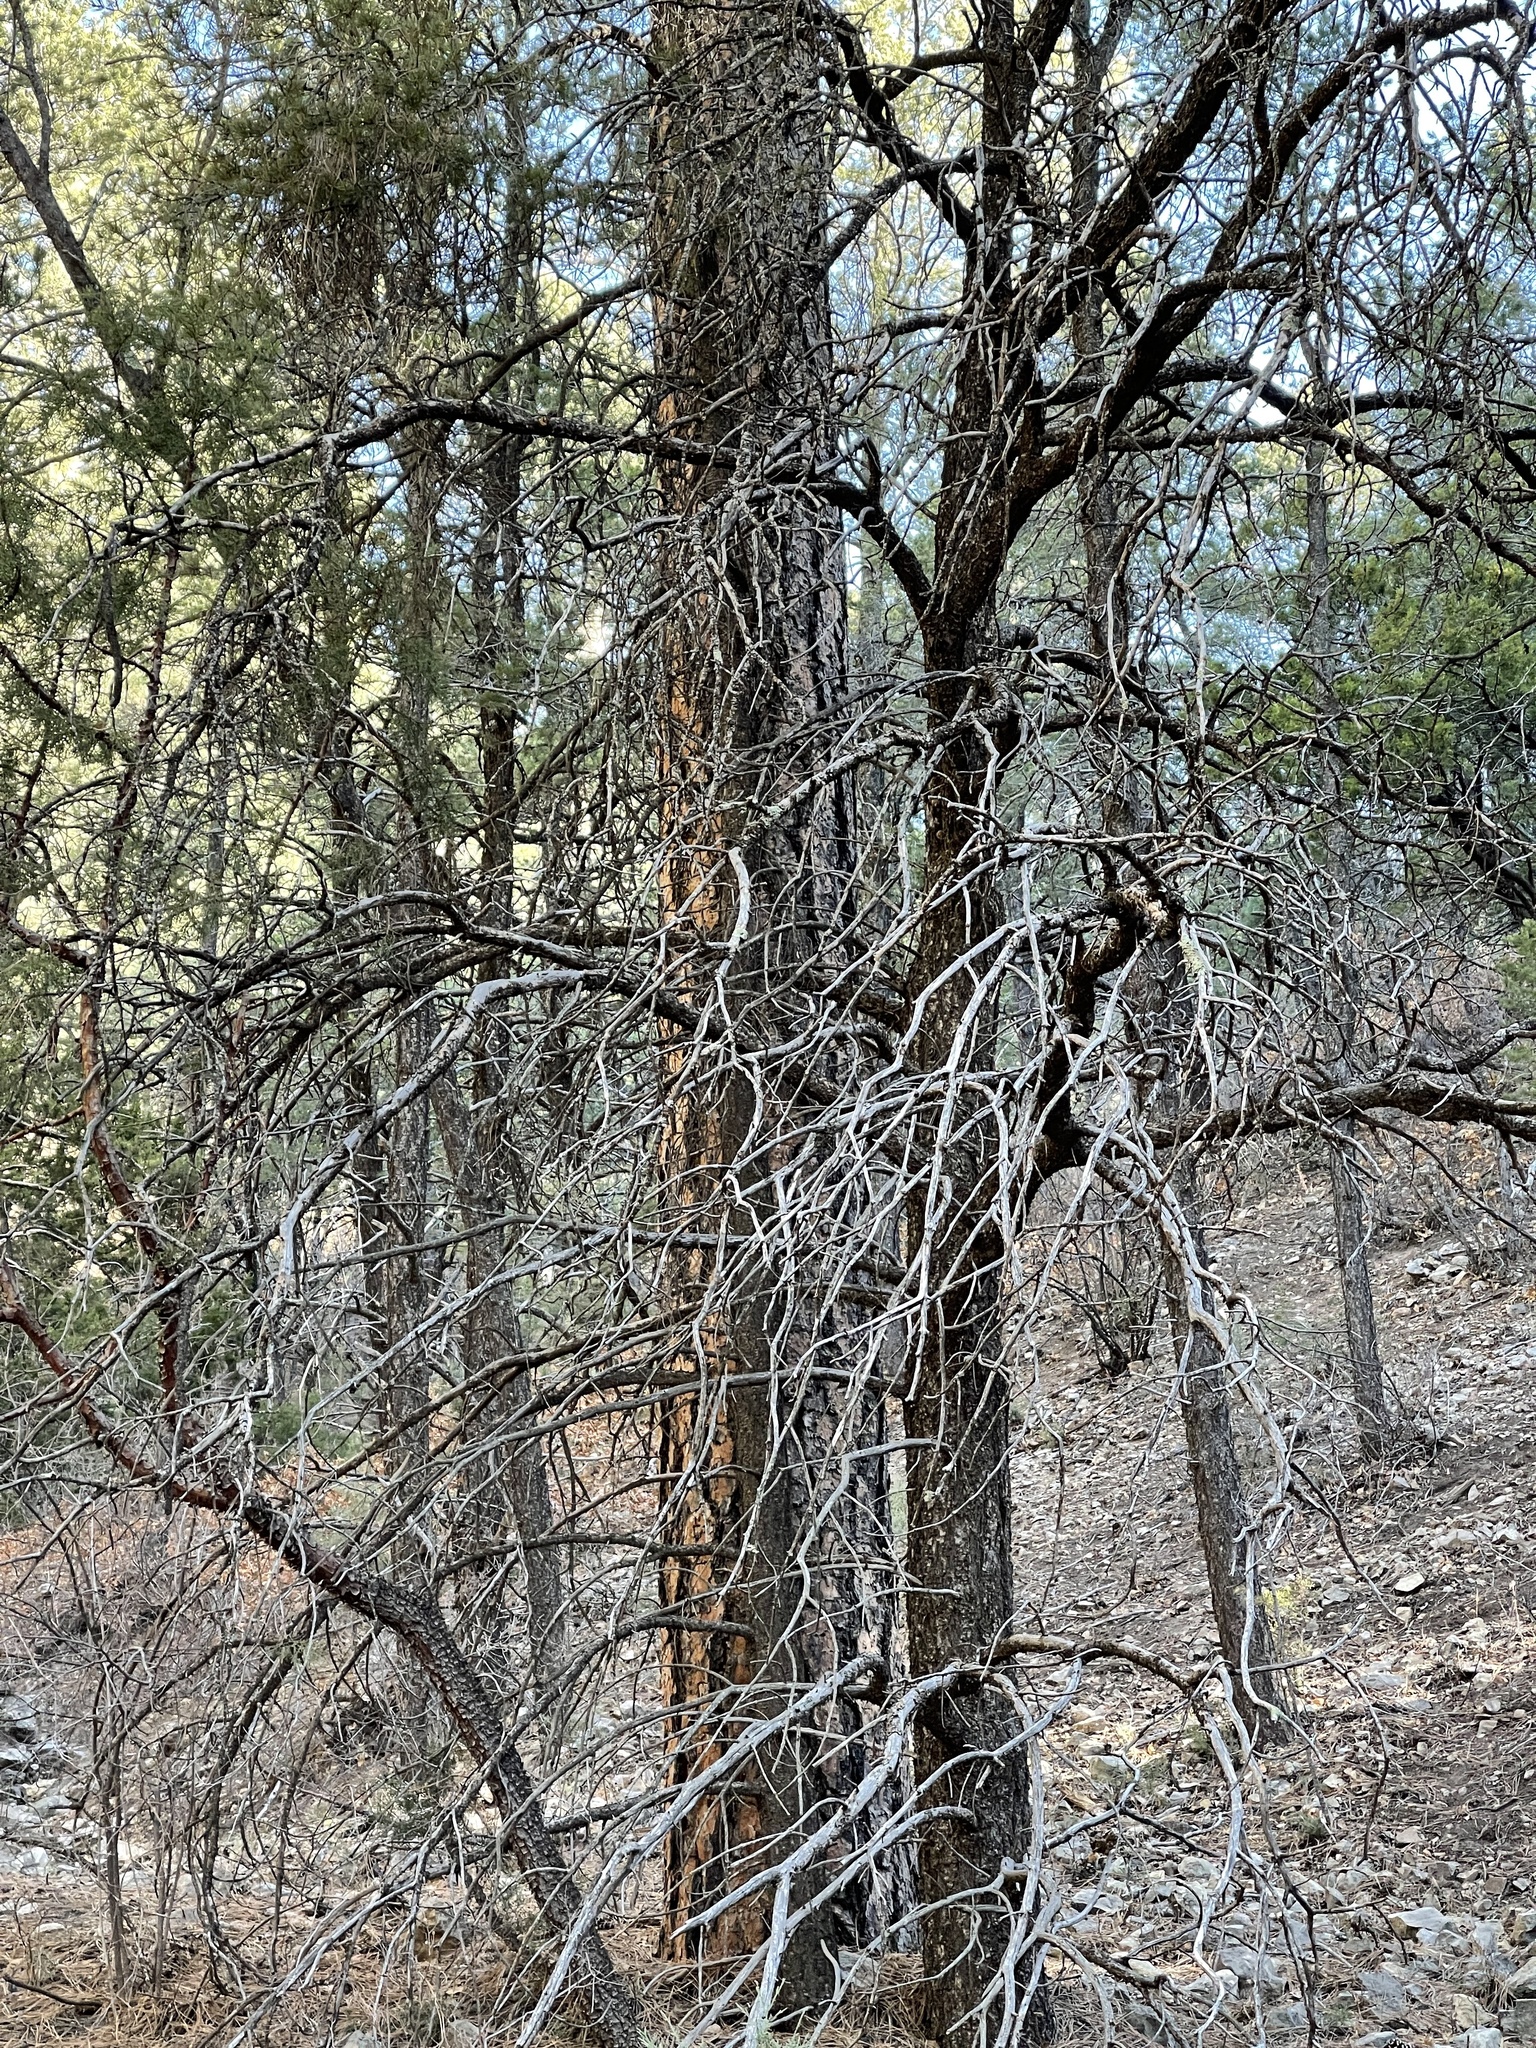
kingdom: Plantae
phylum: Tracheophyta
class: Pinopsida
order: Pinales
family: Pinaceae
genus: Pinus
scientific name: Pinus ponderosa
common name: Western yellow-pine
